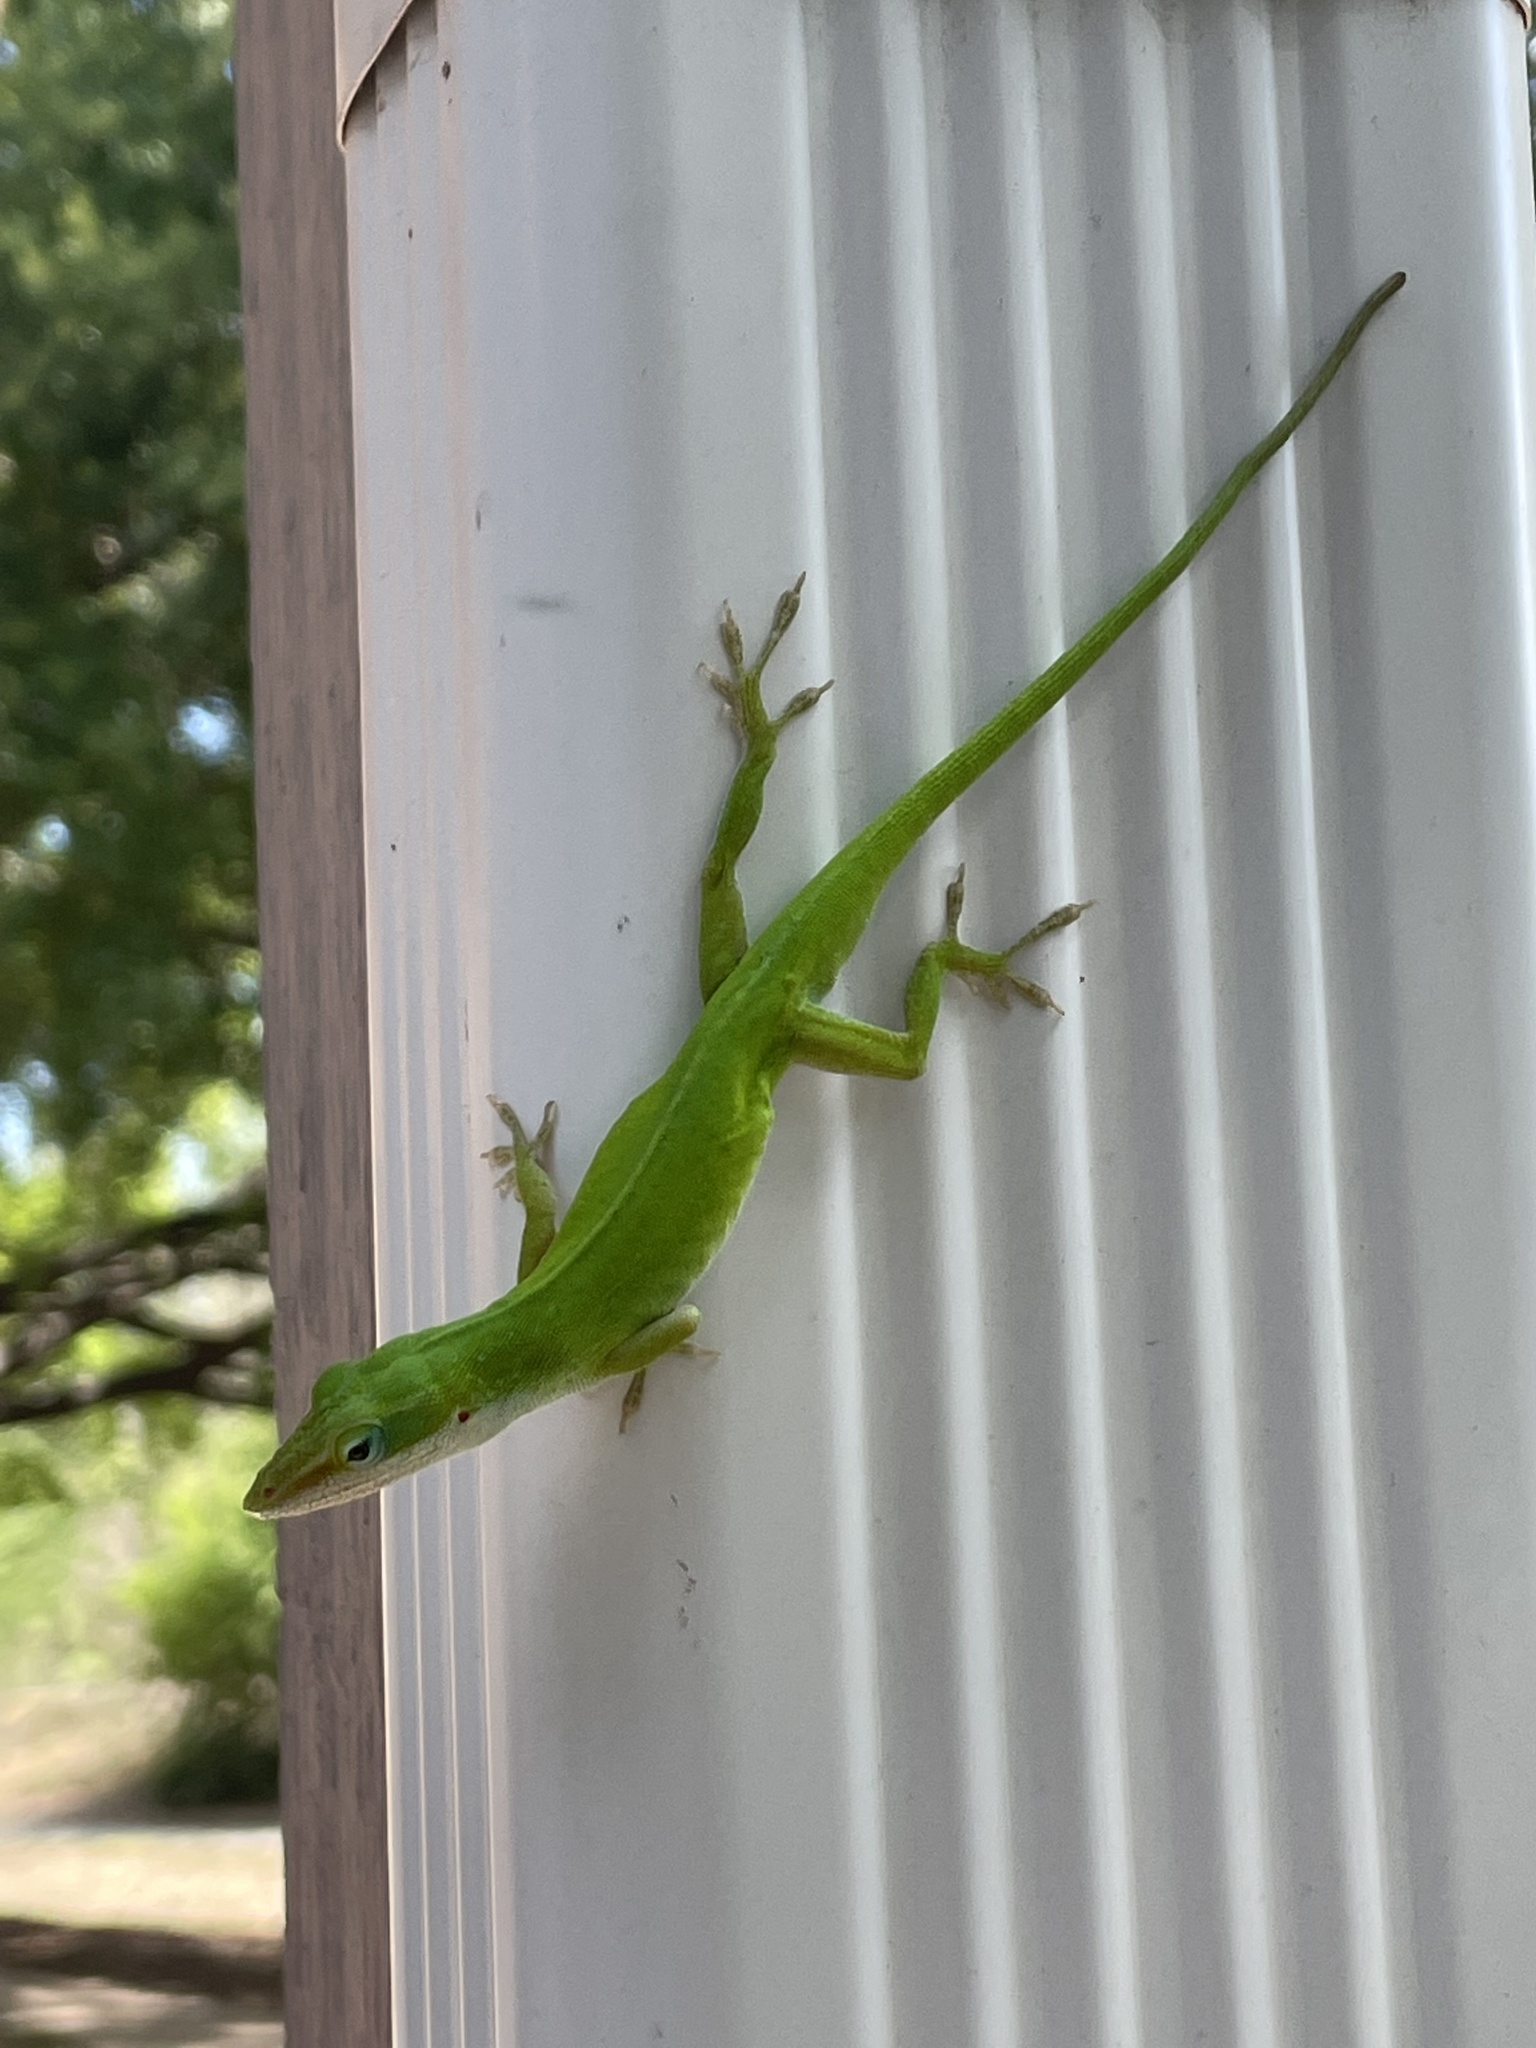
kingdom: Animalia
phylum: Chordata
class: Squamata
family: Dactyloidae
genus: Anolis
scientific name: Anolis carolinensis
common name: Green anole
